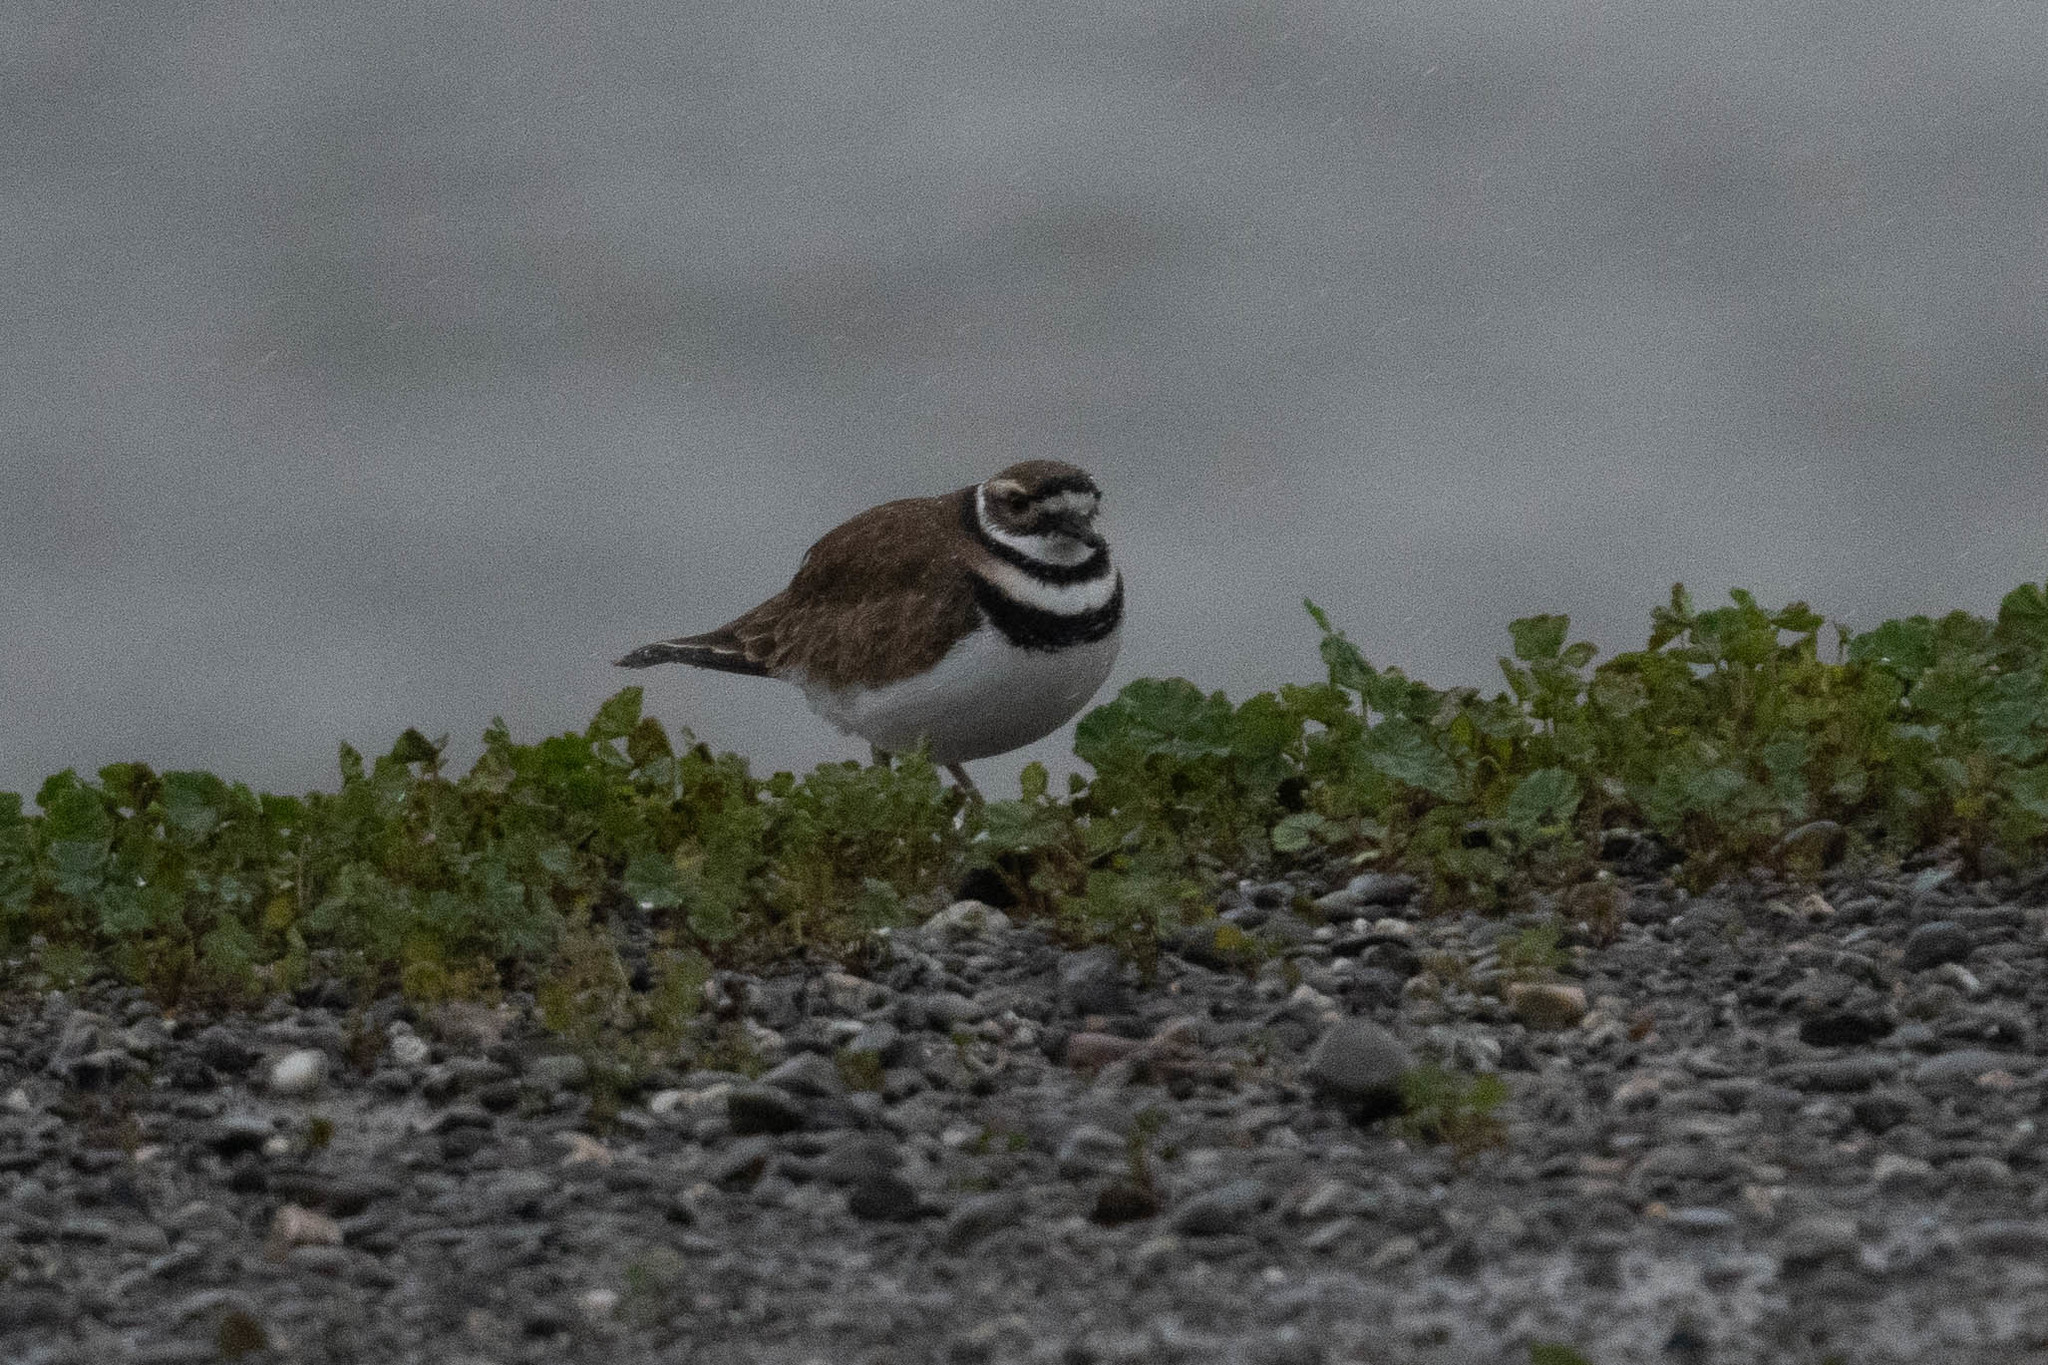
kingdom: Animalia
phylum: Chordata
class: Aves
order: Charadriiformes
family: Charadriidae
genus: Charadrius
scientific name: Charadrius vociferus
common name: Killdeer
